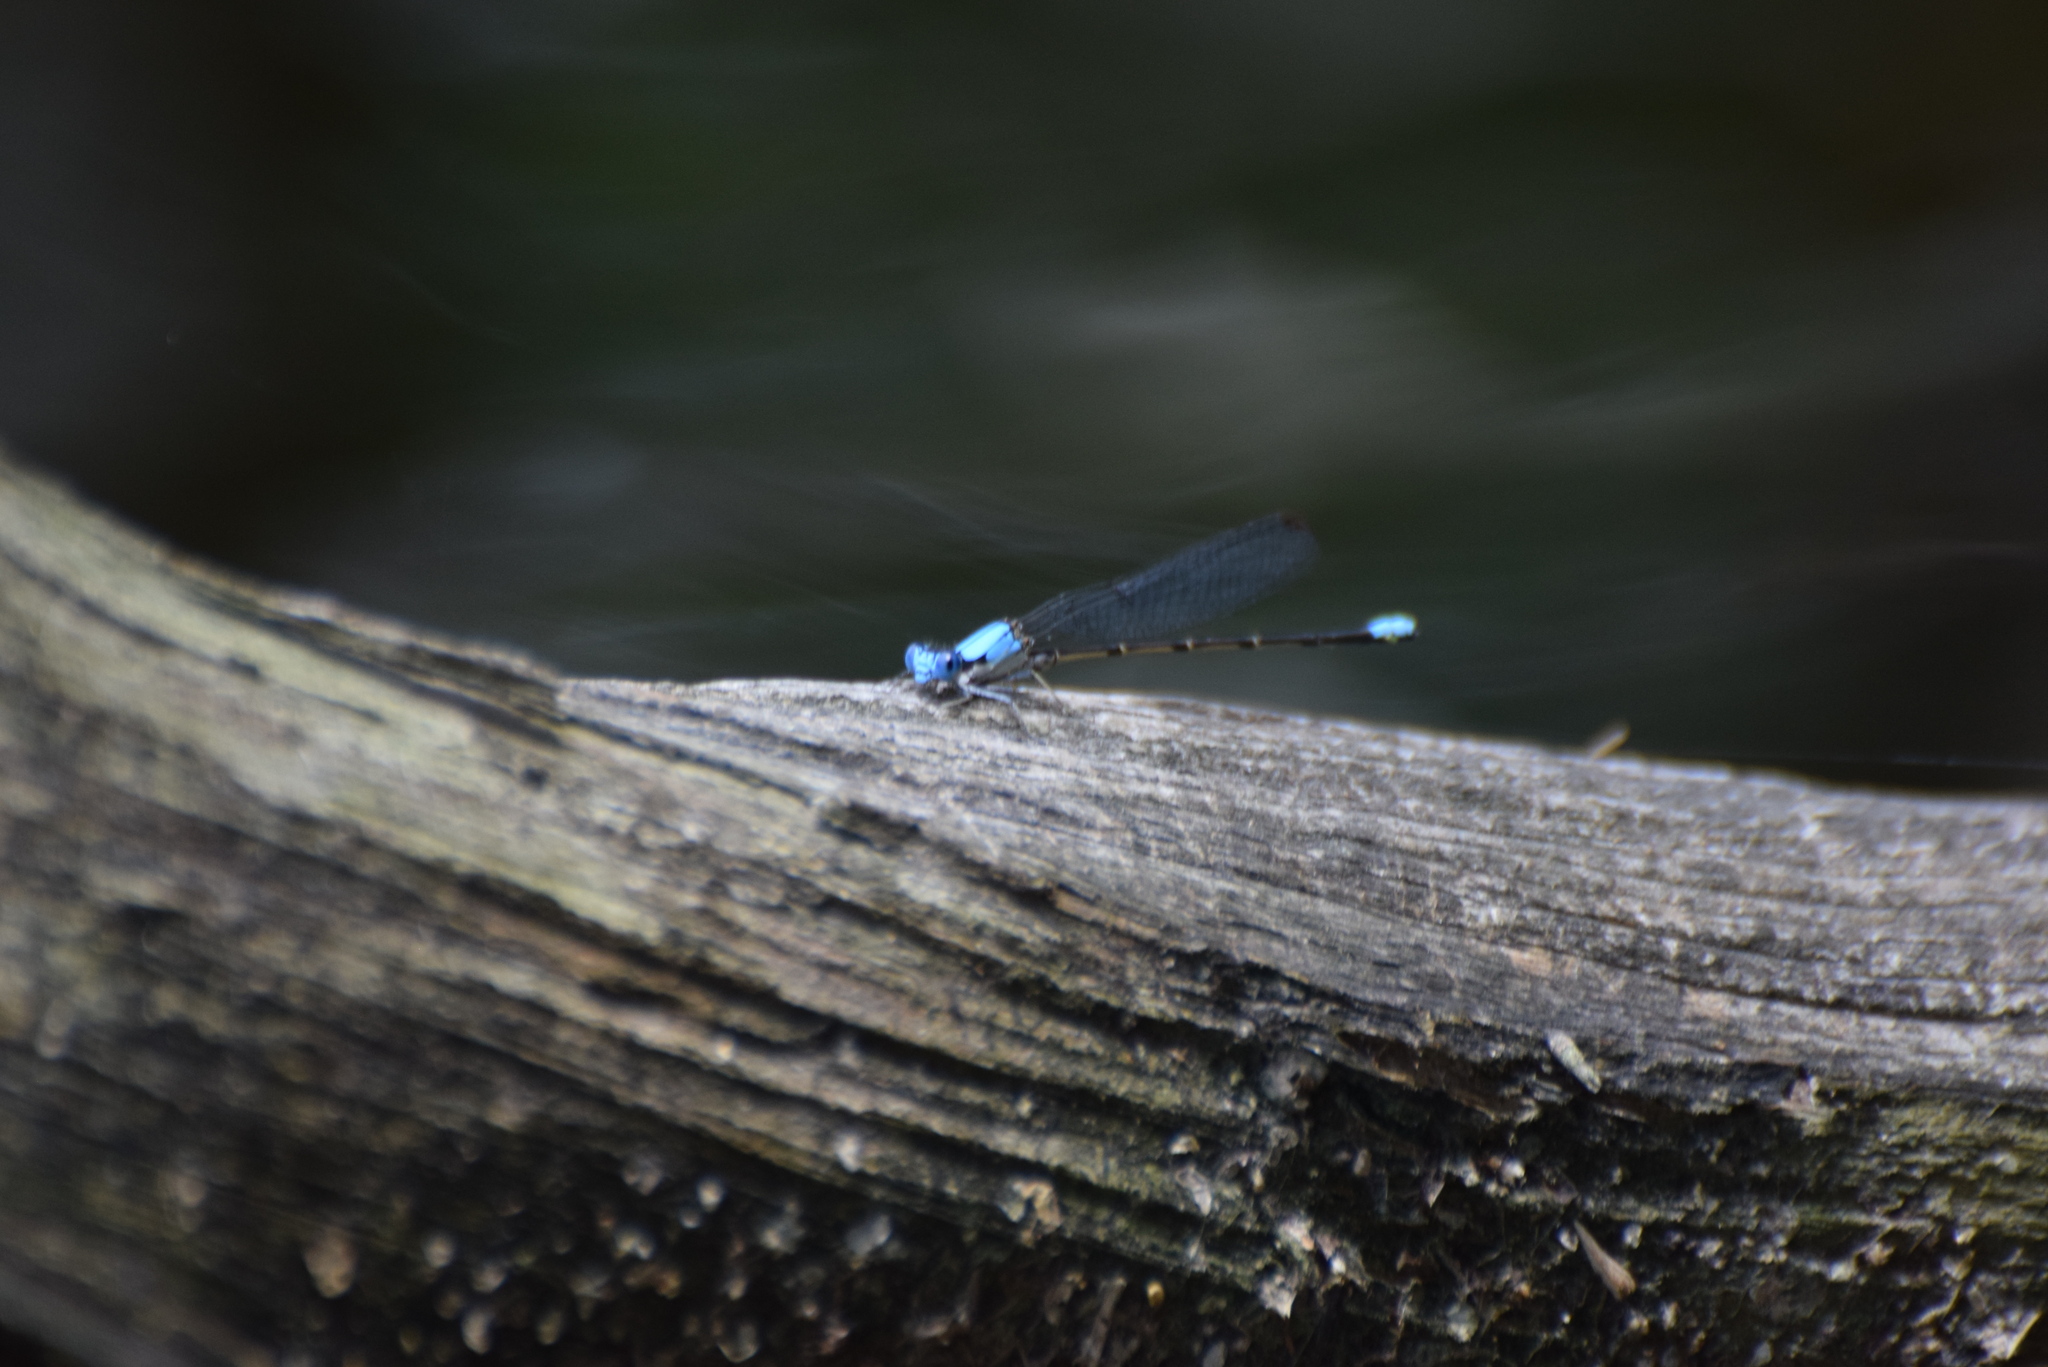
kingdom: Animalia
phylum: Arthropoda
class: Insecta
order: Odonata
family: Coenagrionidae
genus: Argia
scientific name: Argia apicalis
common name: Blue-fronted dancer
